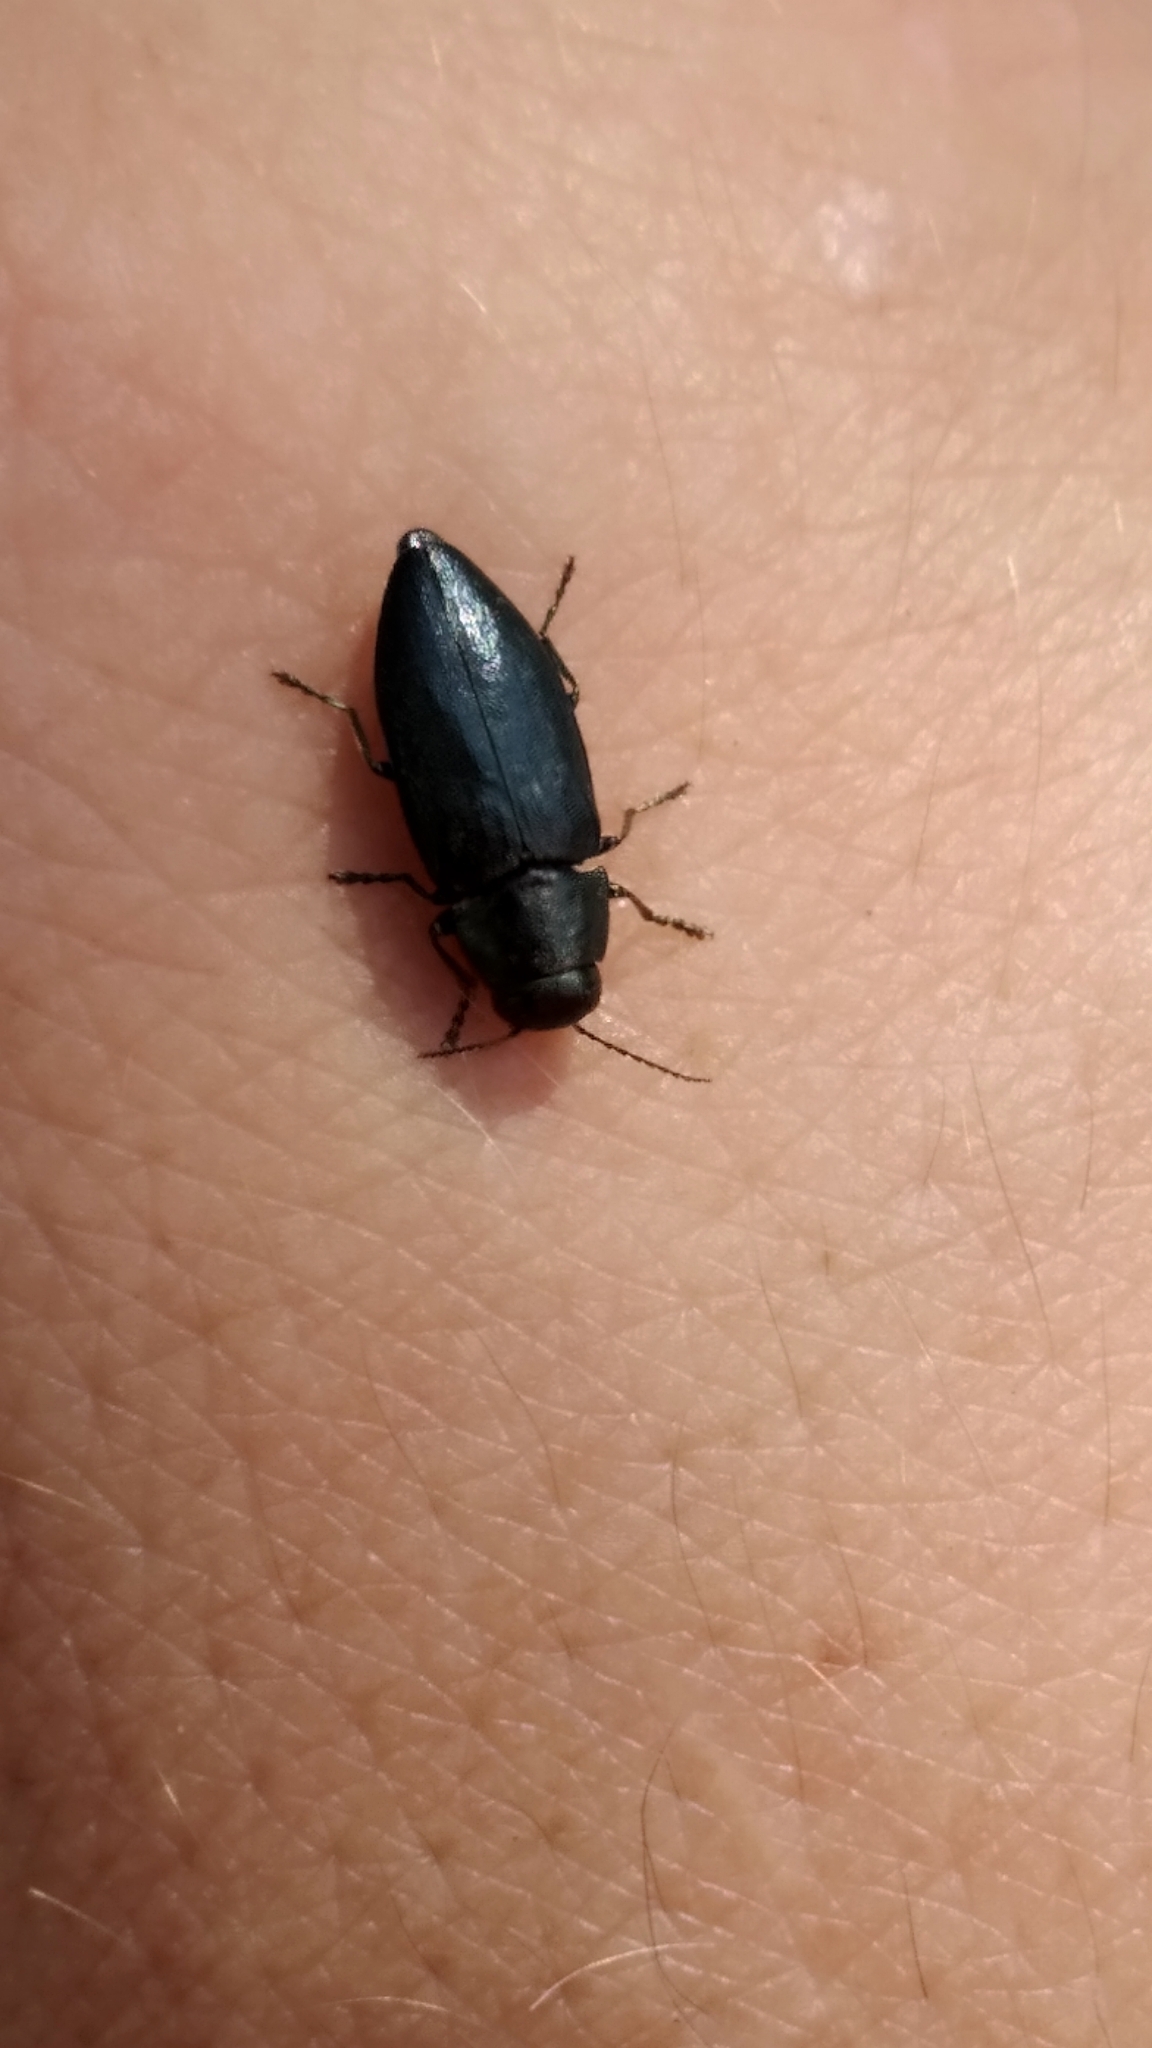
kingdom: Animalia
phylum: Arthropoda
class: Insecta
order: Coleoptera
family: Buprestidae
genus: Phaenops
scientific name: Phaenops cyanea
